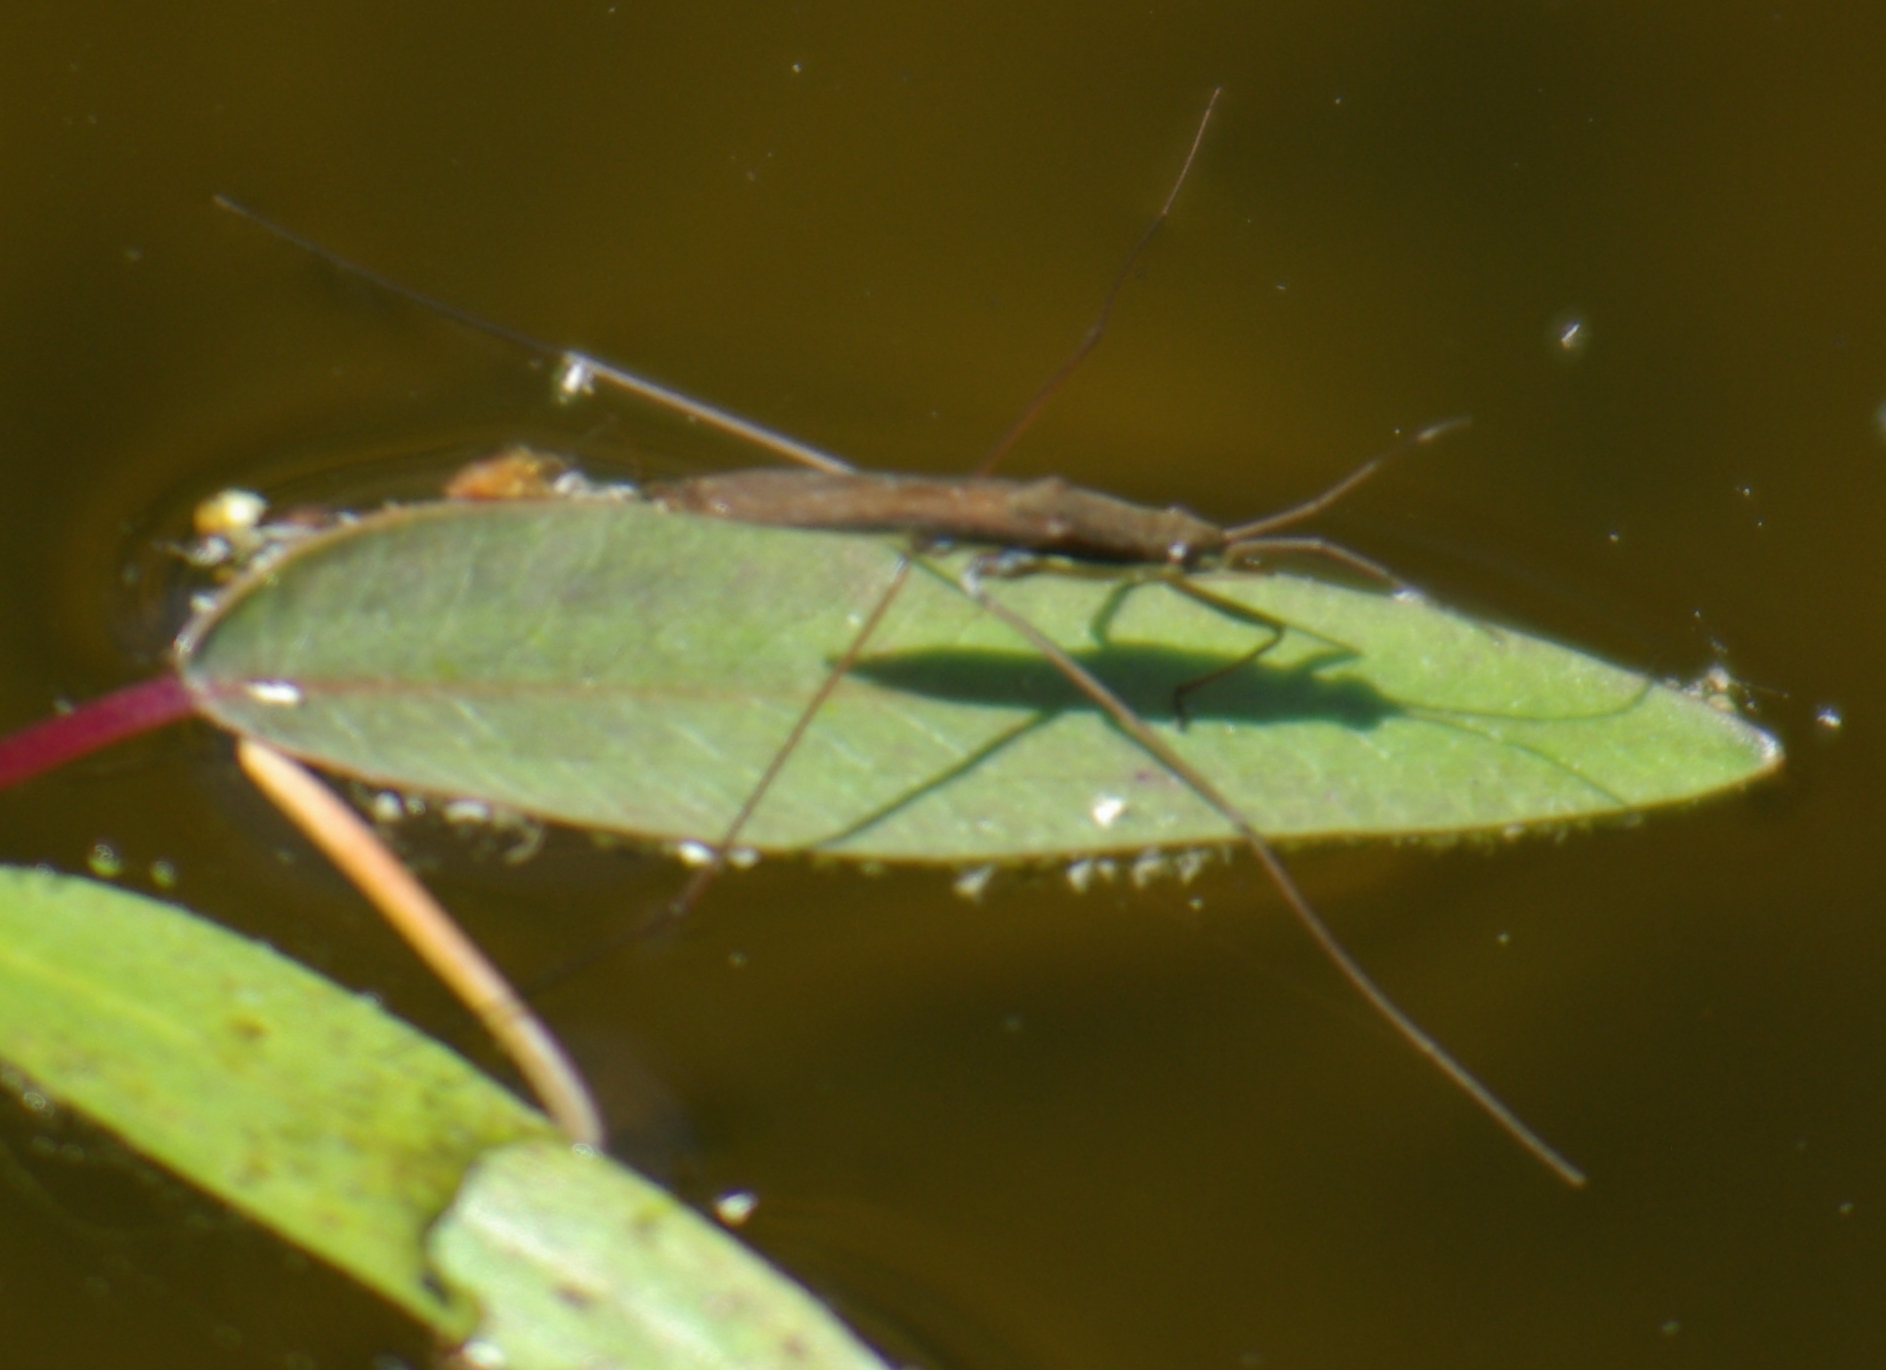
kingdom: Animalia
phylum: Arthropoda
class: Insecta
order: Hemiptera
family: Gerridae
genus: Limnoporus
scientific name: Limnoporus dissortis
